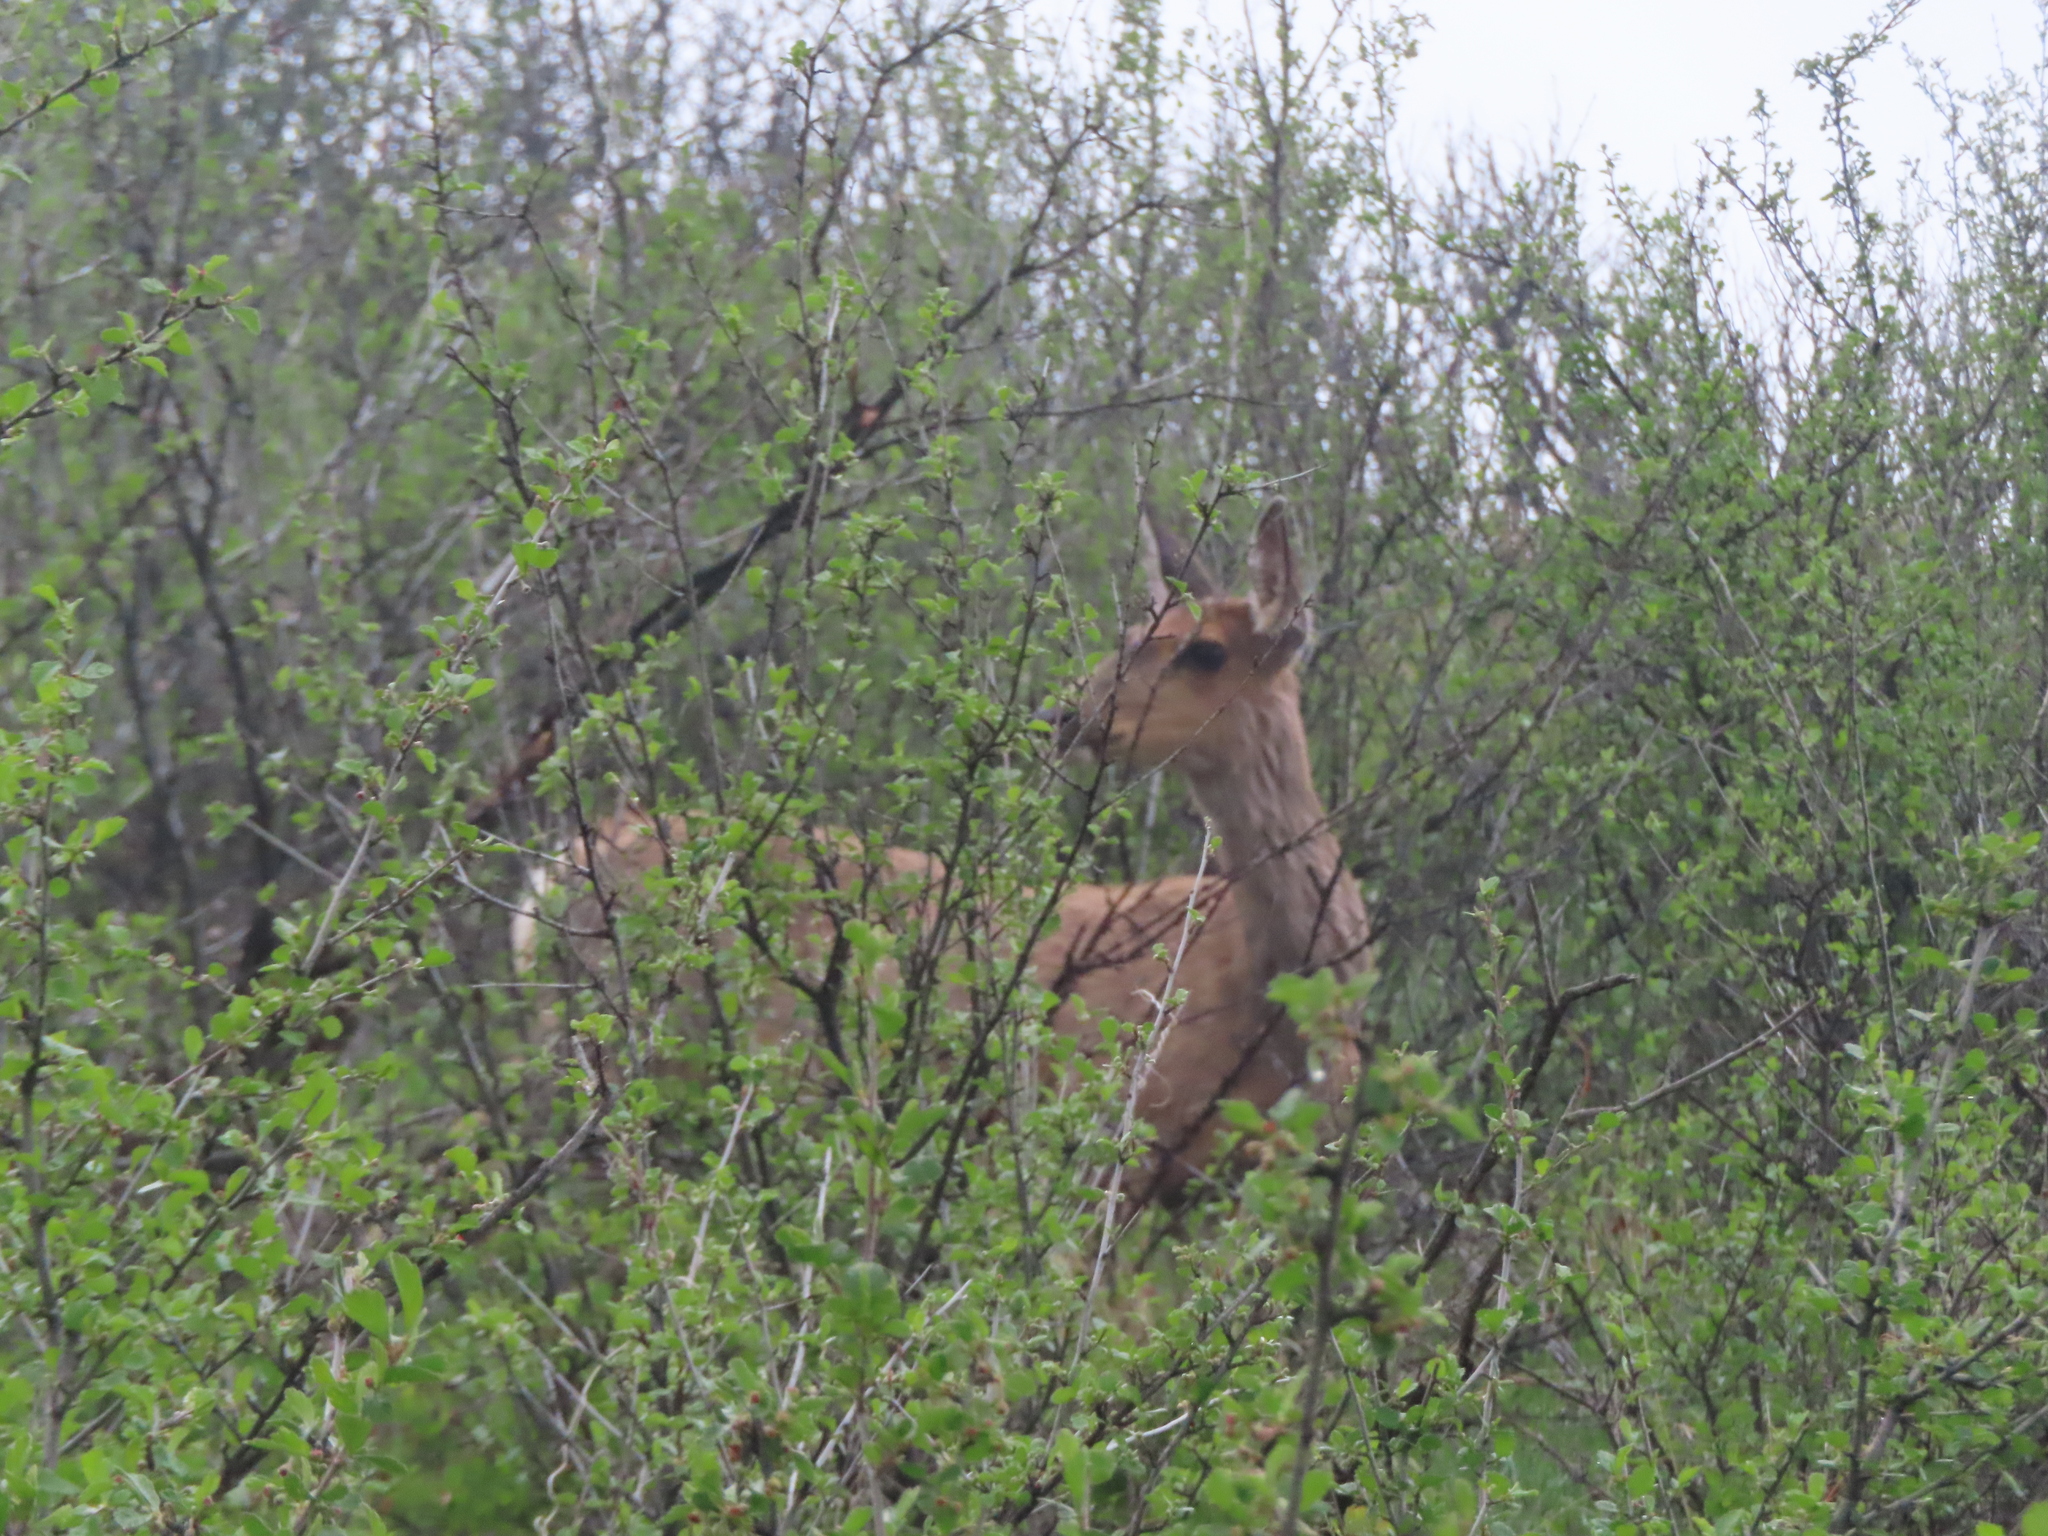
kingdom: Animalia
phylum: Chordata
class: Mammalia
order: Artiodactyla
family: Cervidae
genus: Cervus
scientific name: Cervus elaphus
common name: Red deer
